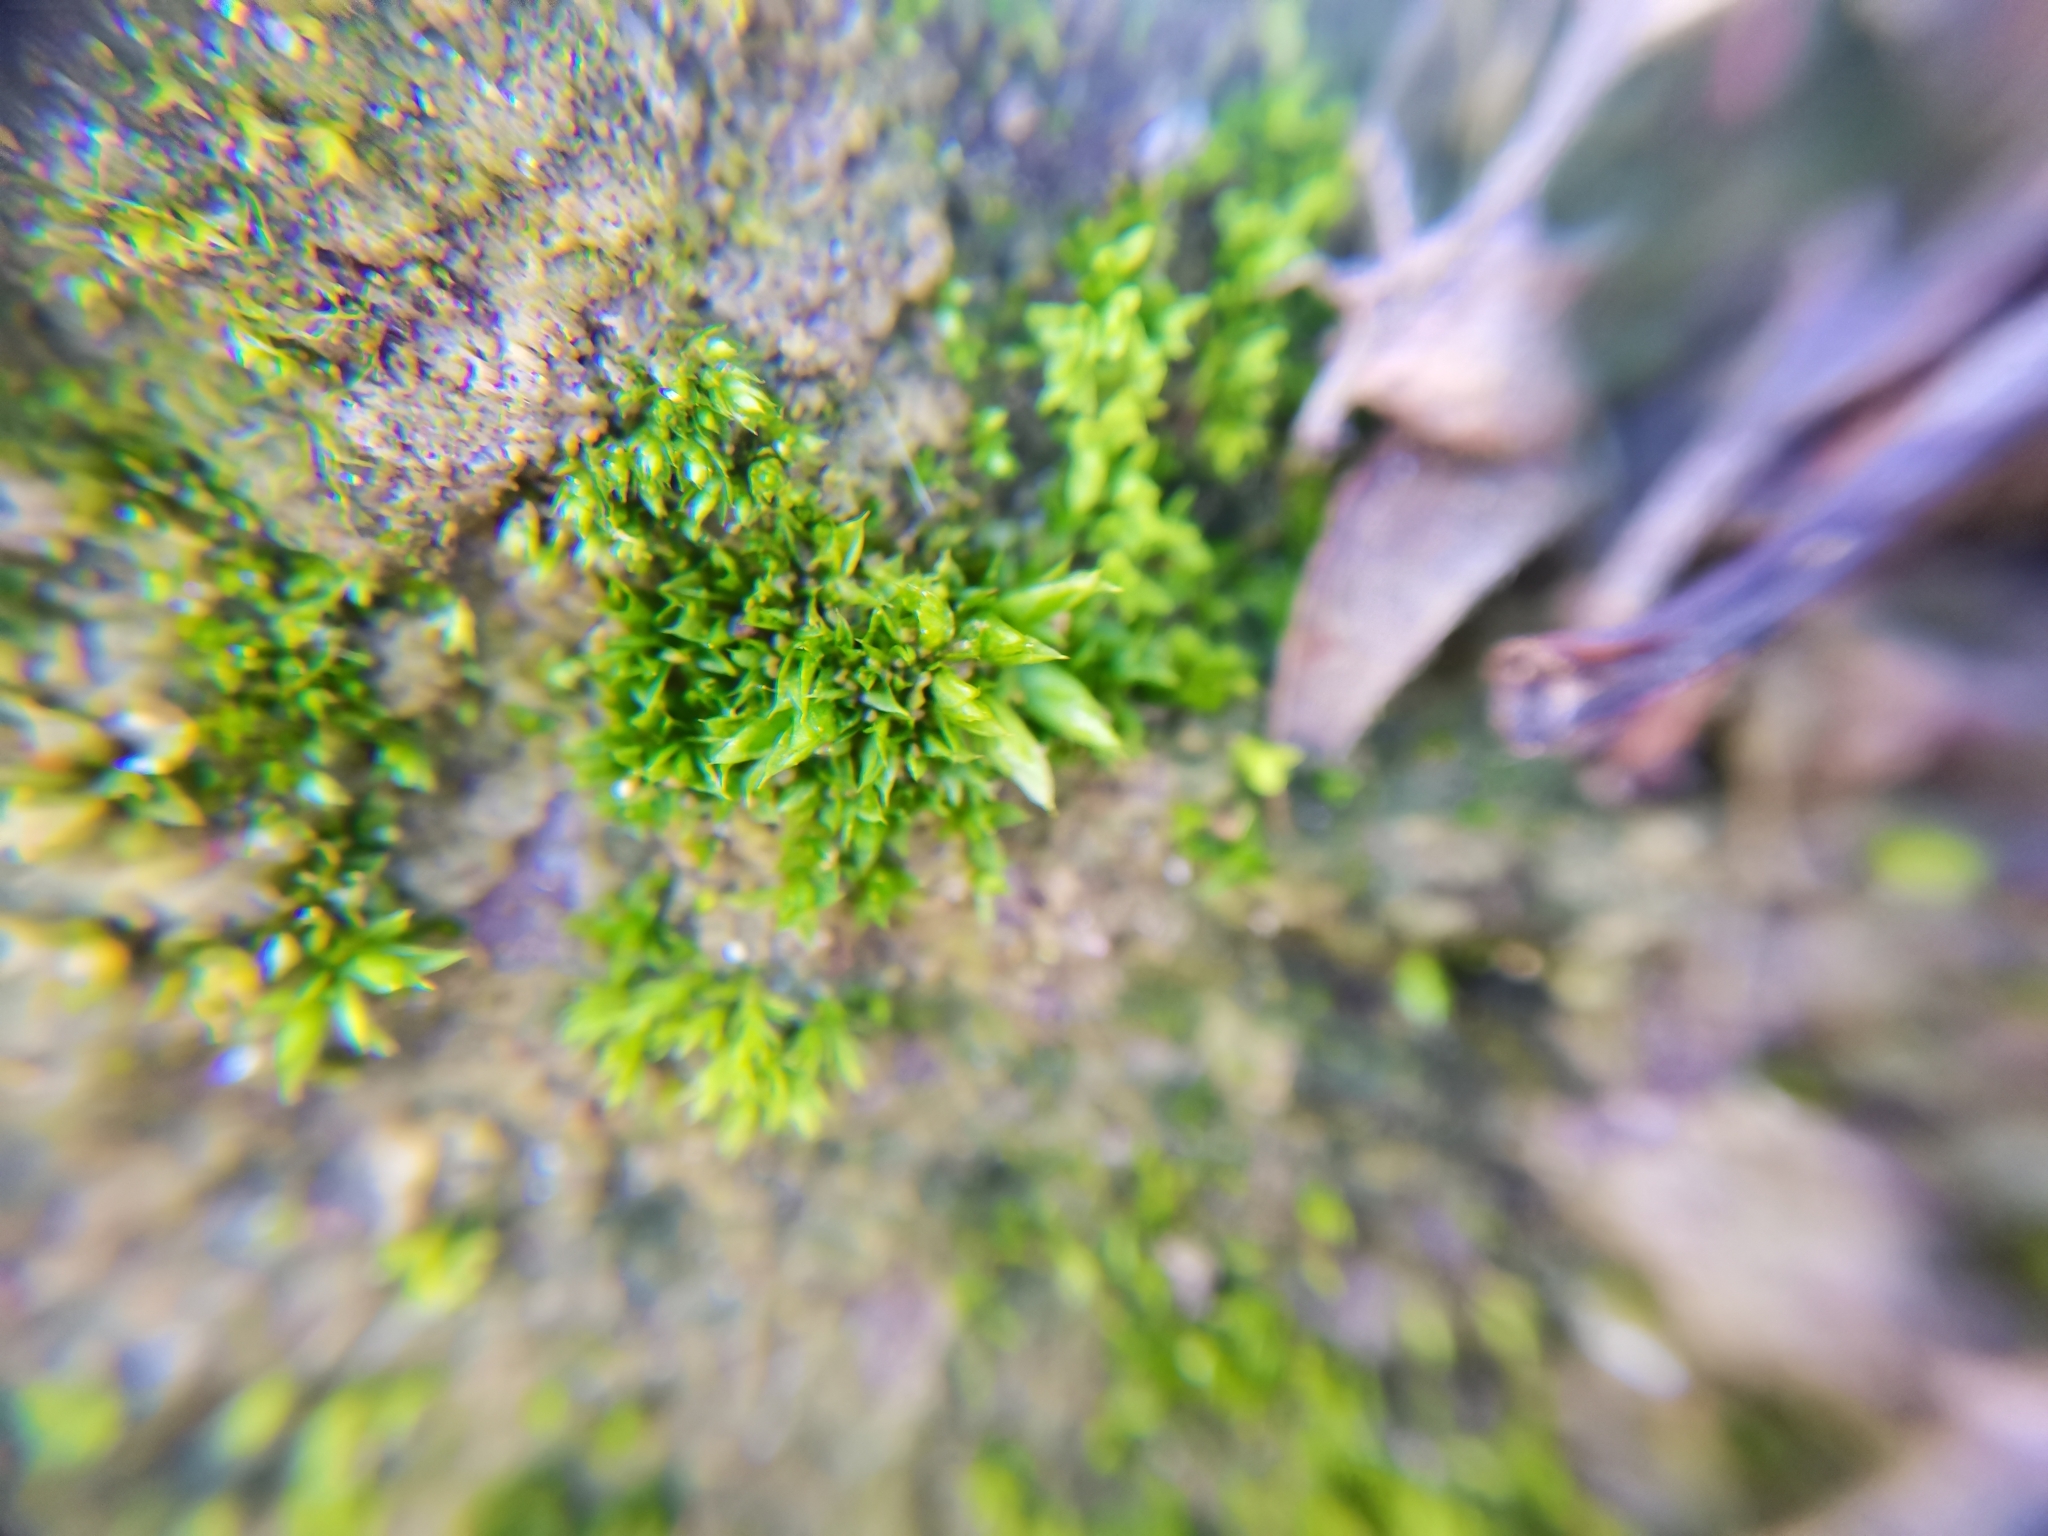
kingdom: Plantae
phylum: Bryophyta
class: Bryopsida
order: Pottiales
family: Pottiaceae
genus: Tortula
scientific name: Tortula acaulon
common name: Cuspidate earth moss
